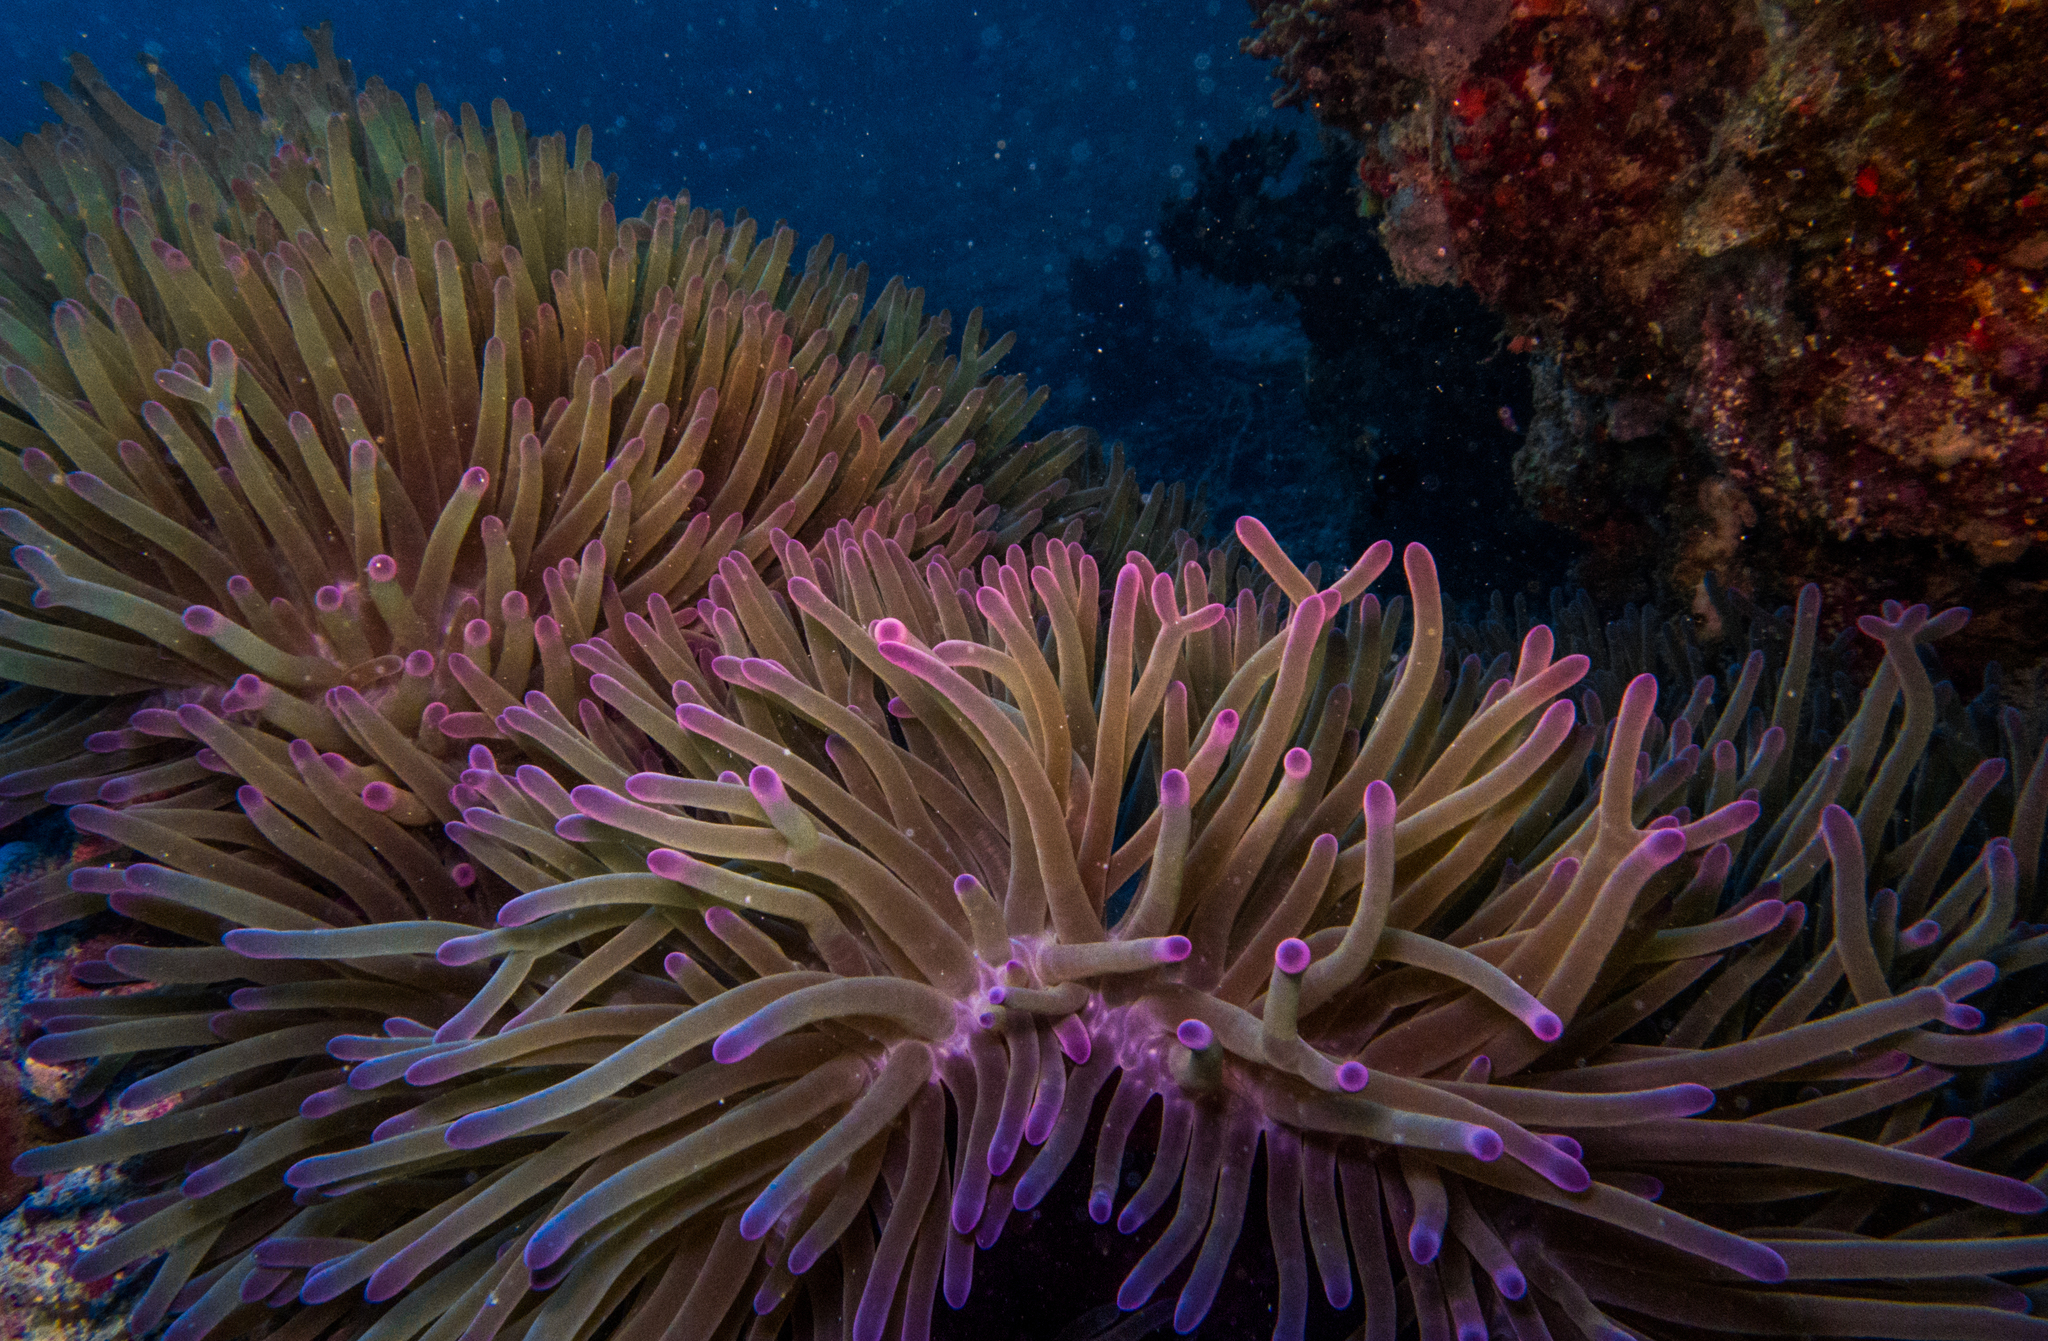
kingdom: Animalia
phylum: Cnidaria
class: Anthozoa
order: Actiniaria
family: Stichodactylidae
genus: Radianthus
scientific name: Radianthus magnifica
